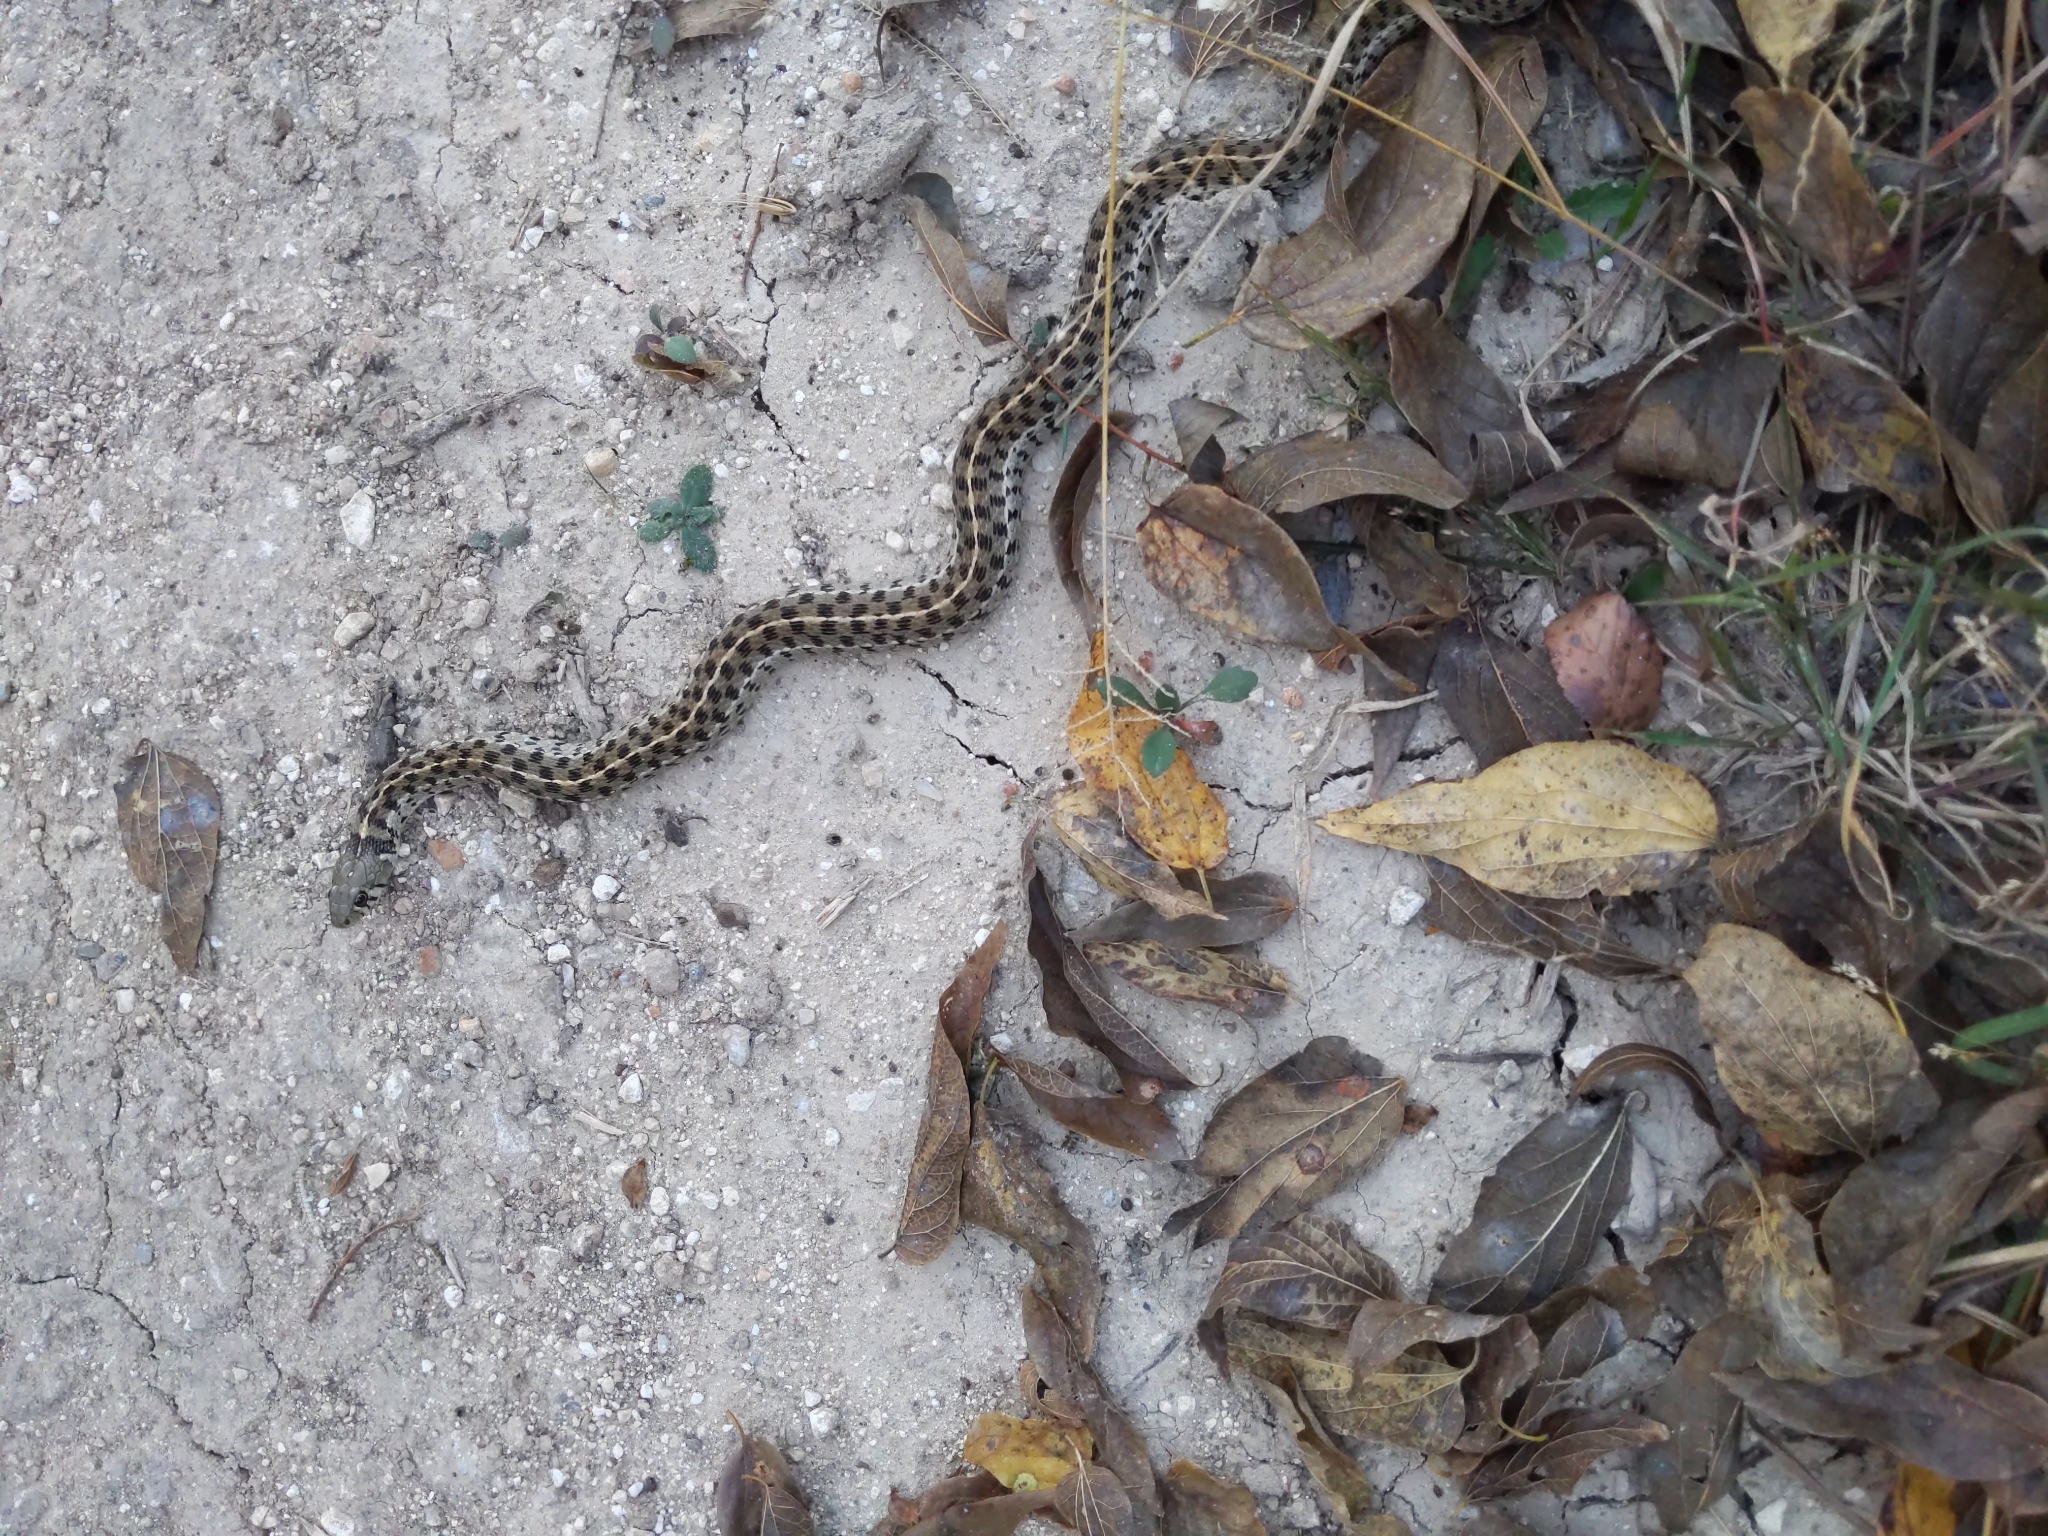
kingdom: Animalia
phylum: Chordata
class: Squamata
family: Colubridae
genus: Thamnophis
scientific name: Thamnophis marcianus
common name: Checkered garter snake
